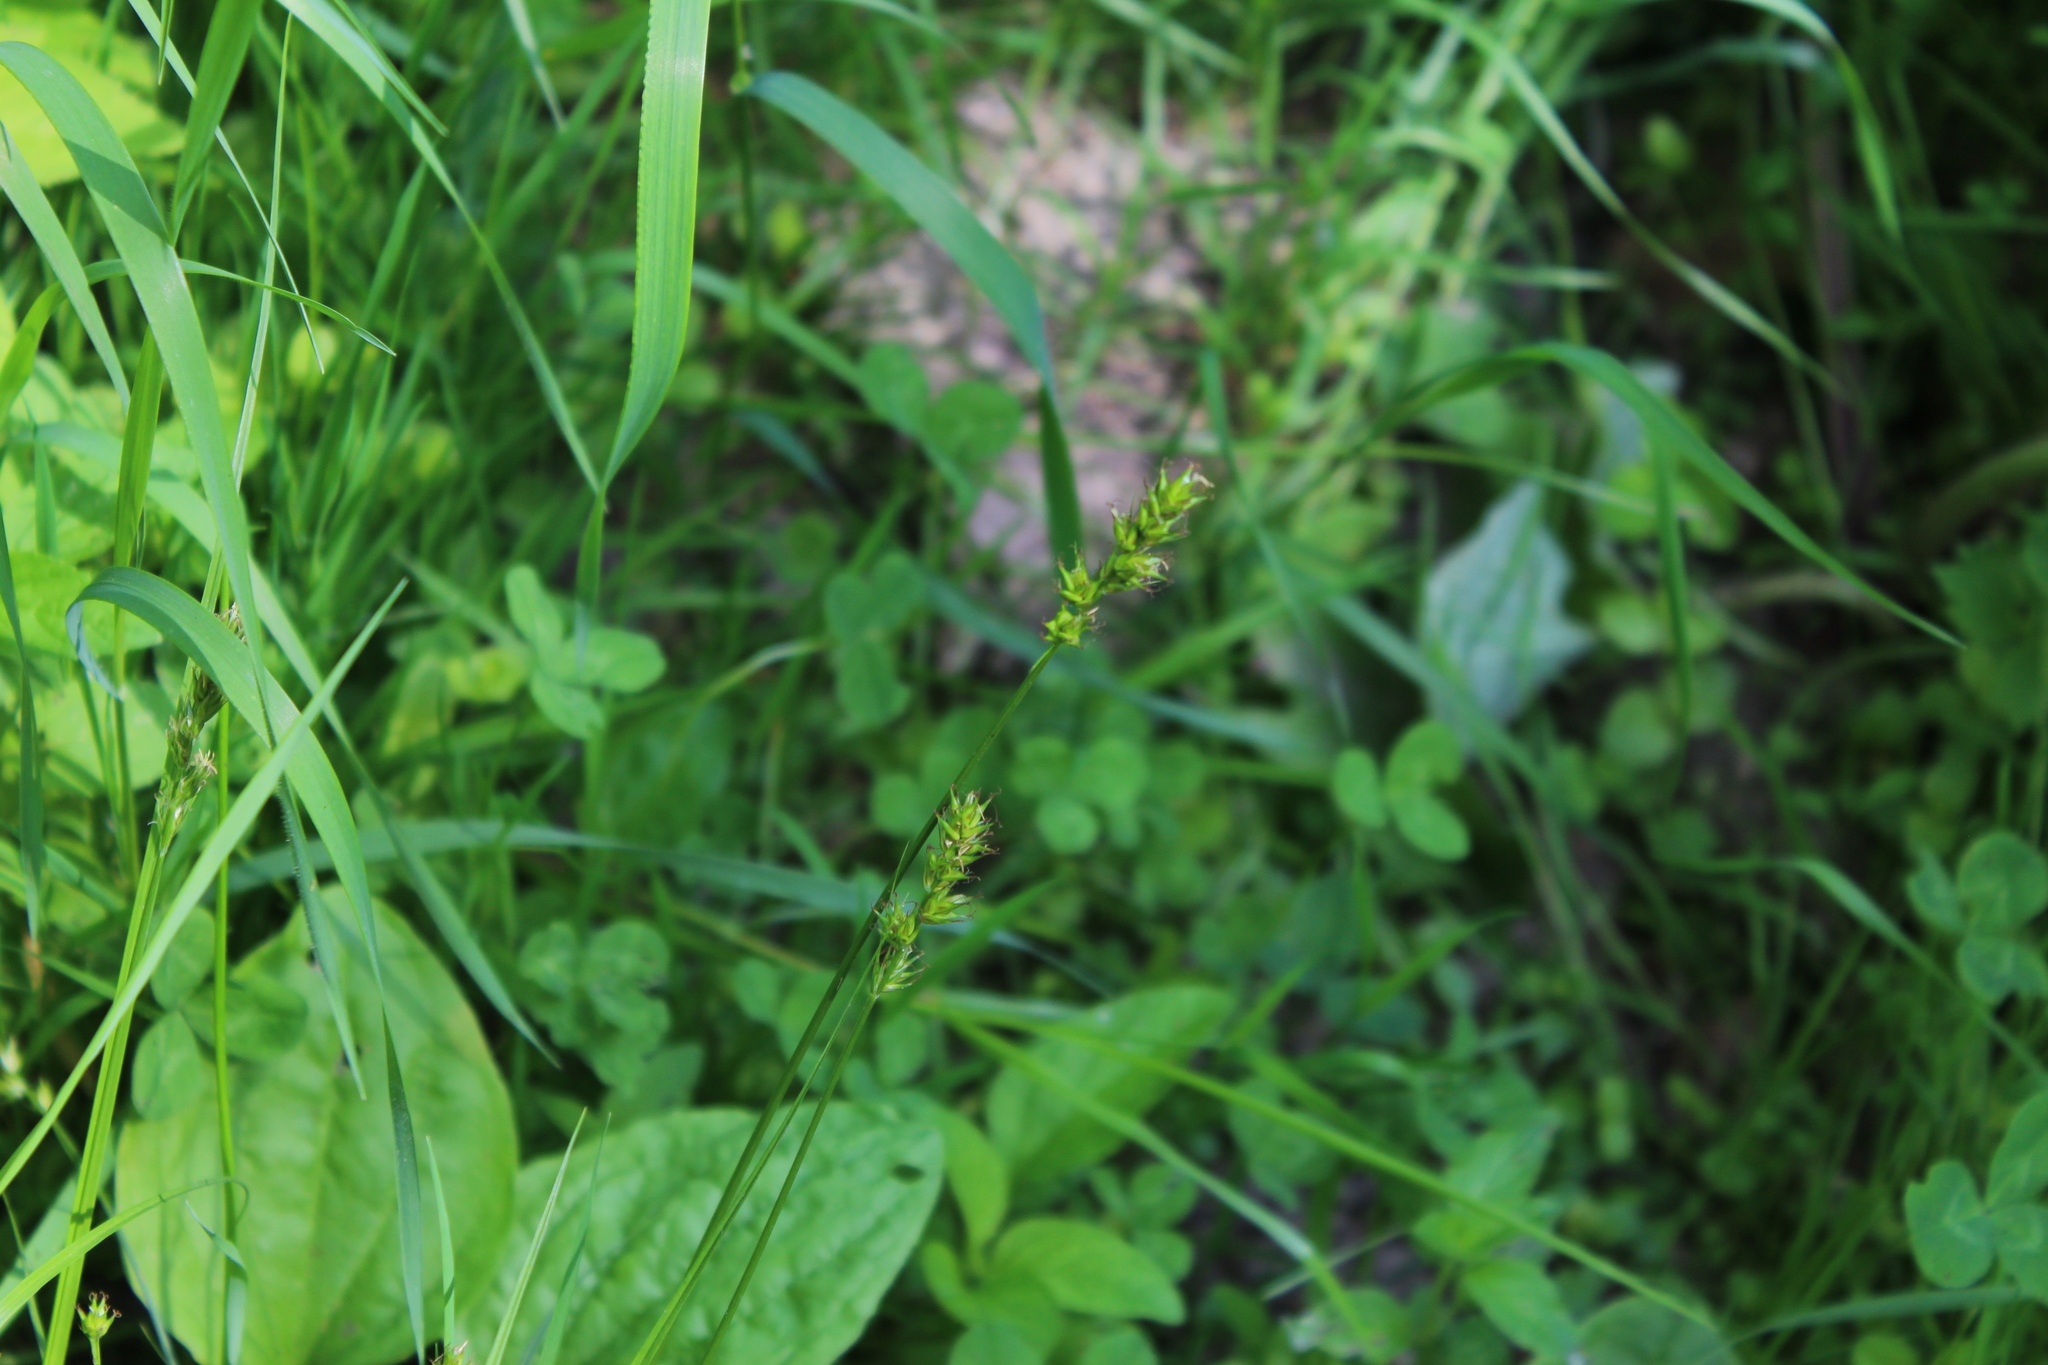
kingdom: Plantae
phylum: Tracheophyta
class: Liliopsida
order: Poales
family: Cyperaceae
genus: Carex
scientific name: Carex spicata
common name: Spiked sedge
